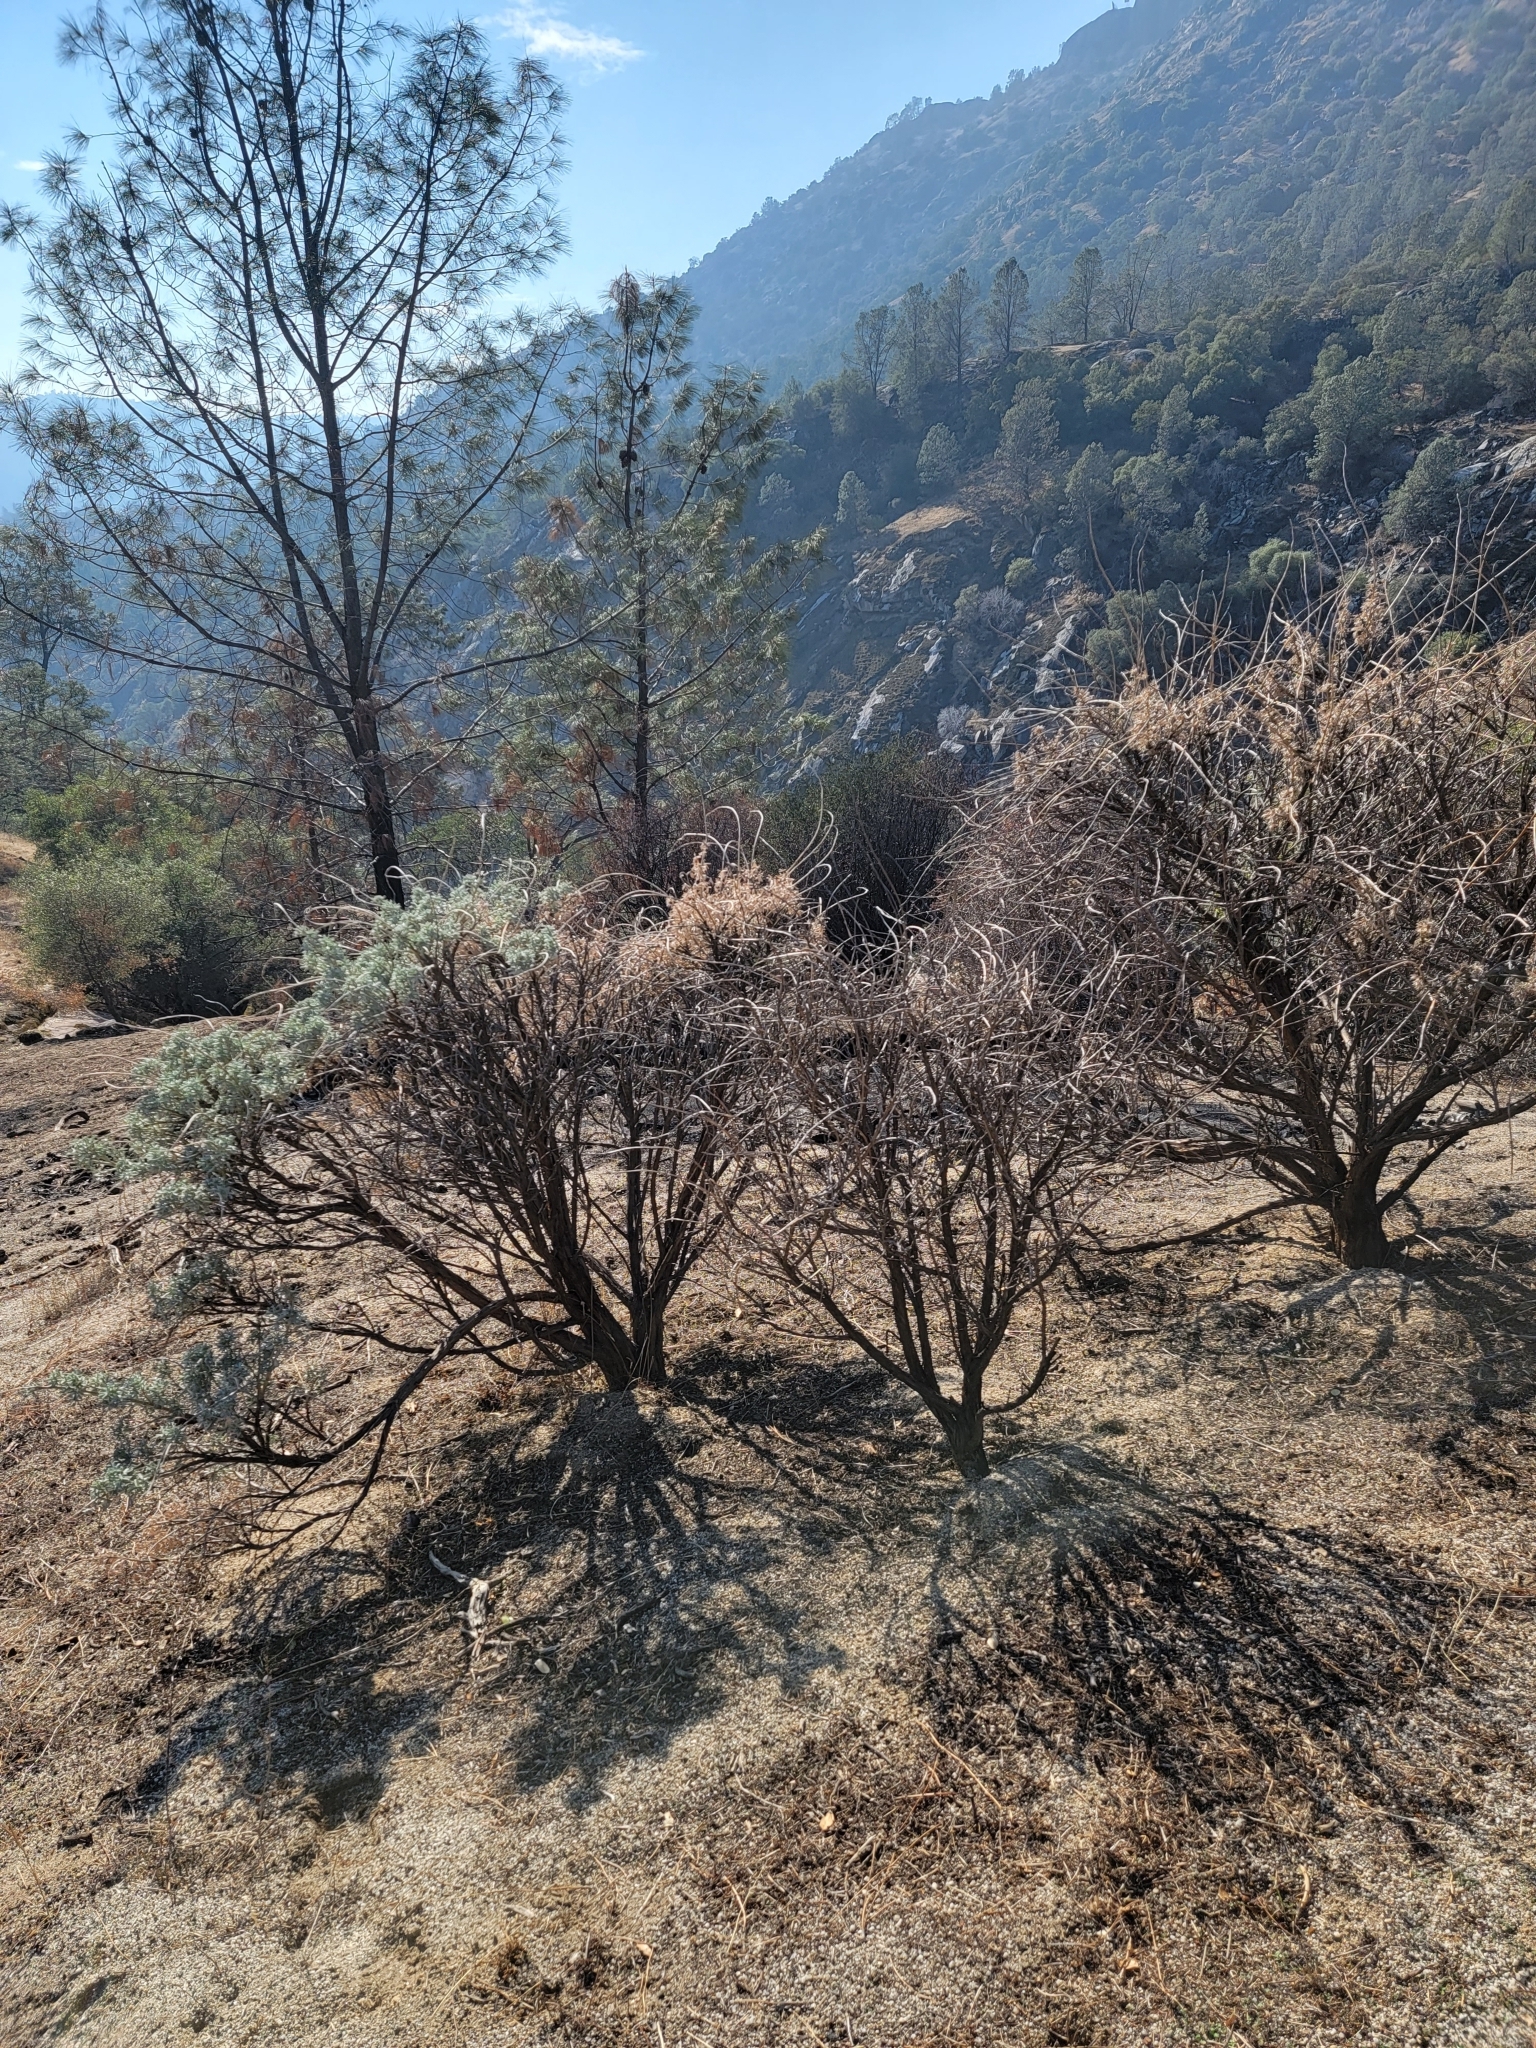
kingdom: Plantae
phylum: Tracheophyta
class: Magnoliopsida
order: Fabales
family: Fabaceae
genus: Lupinus
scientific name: Lupinus albifrons
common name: Foothill lupine
